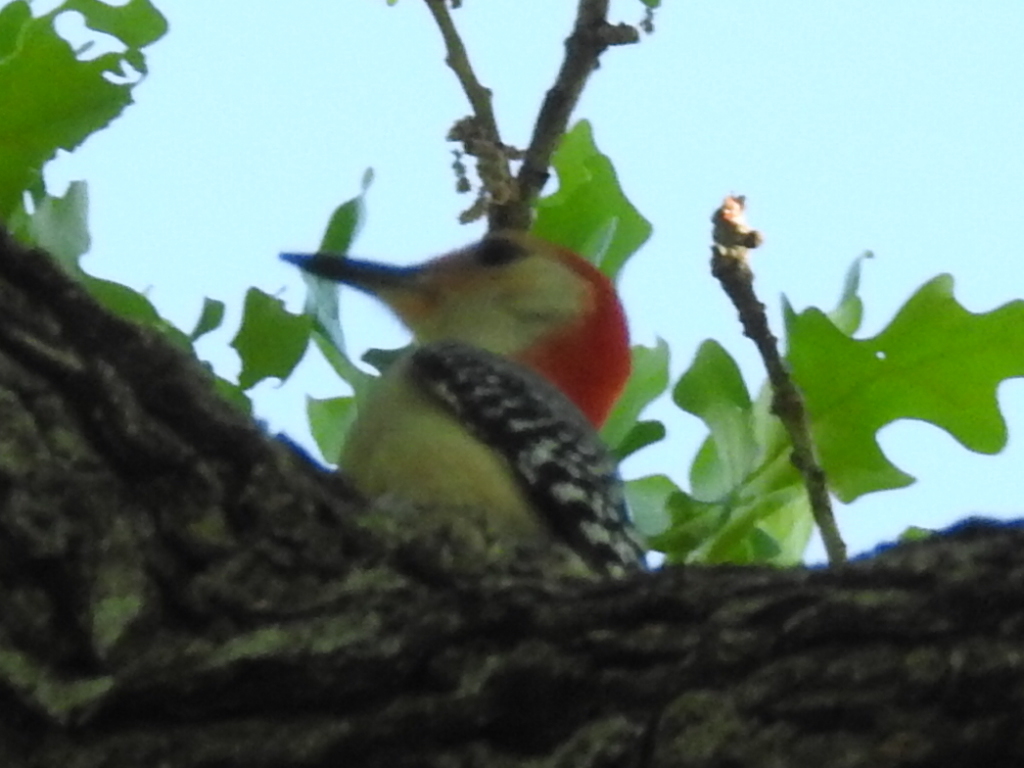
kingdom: Animalia
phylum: Chordata
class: Aves
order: Piciformes
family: Picidae
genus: Melanerpes
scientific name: Melanerpes carolinus
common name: Red-bellied woodpecker
